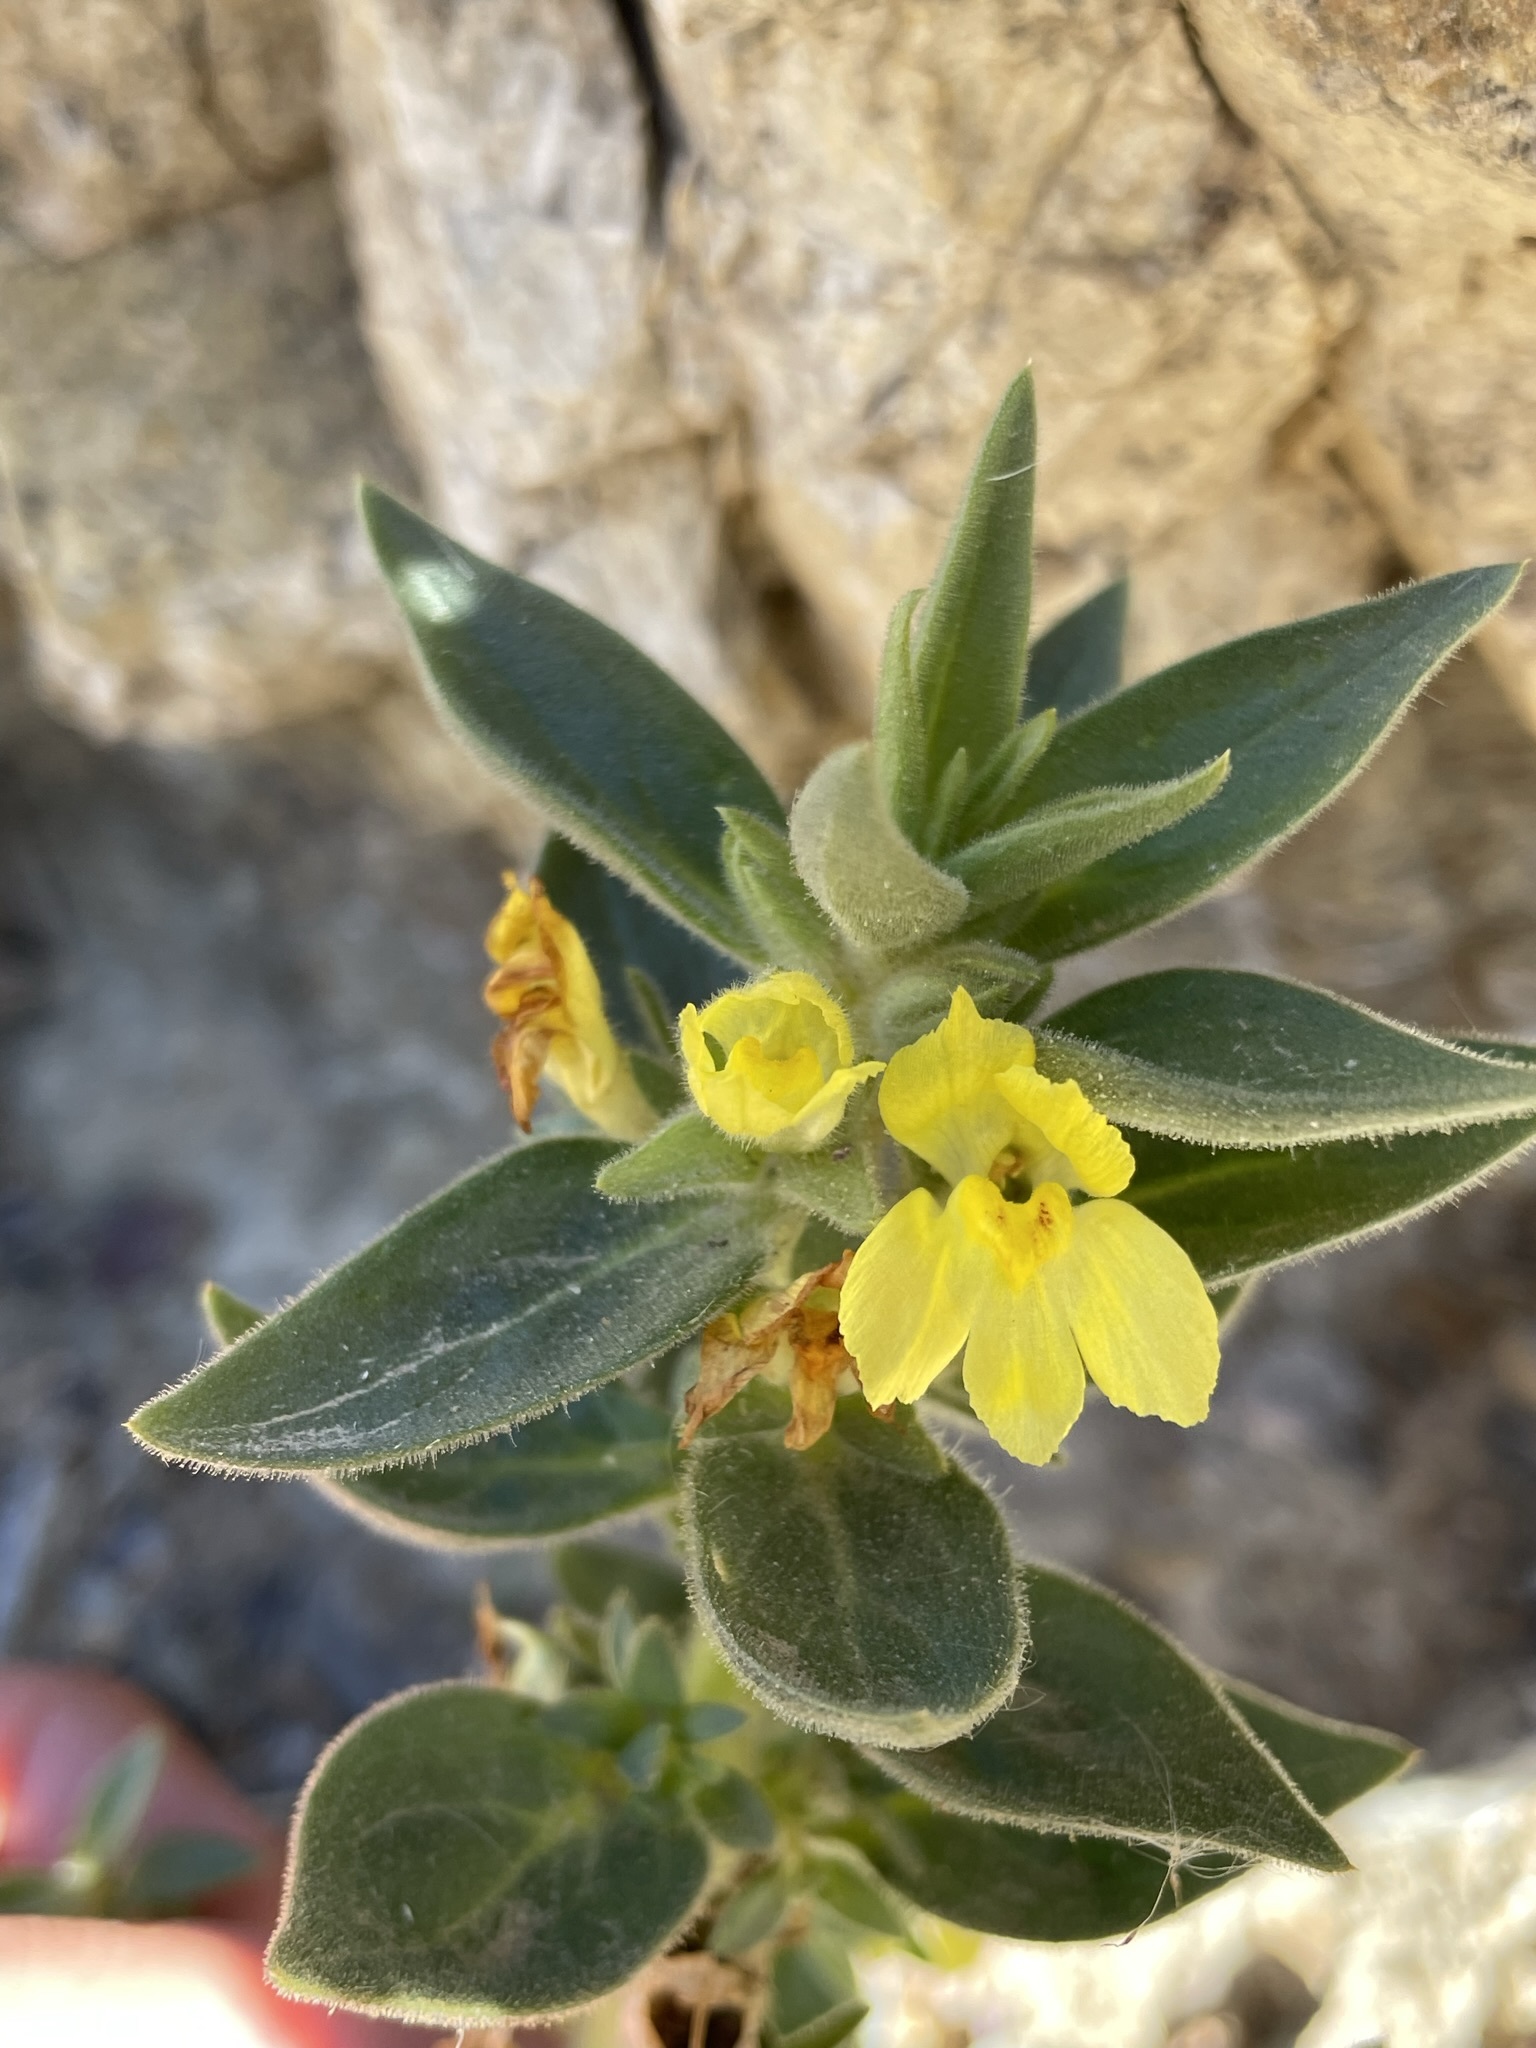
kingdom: Plantae
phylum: Tracheophyta
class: Magnoliopsida
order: Lamiales
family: Plantaginaceae
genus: Mohavea
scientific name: Mohavea breviflora
